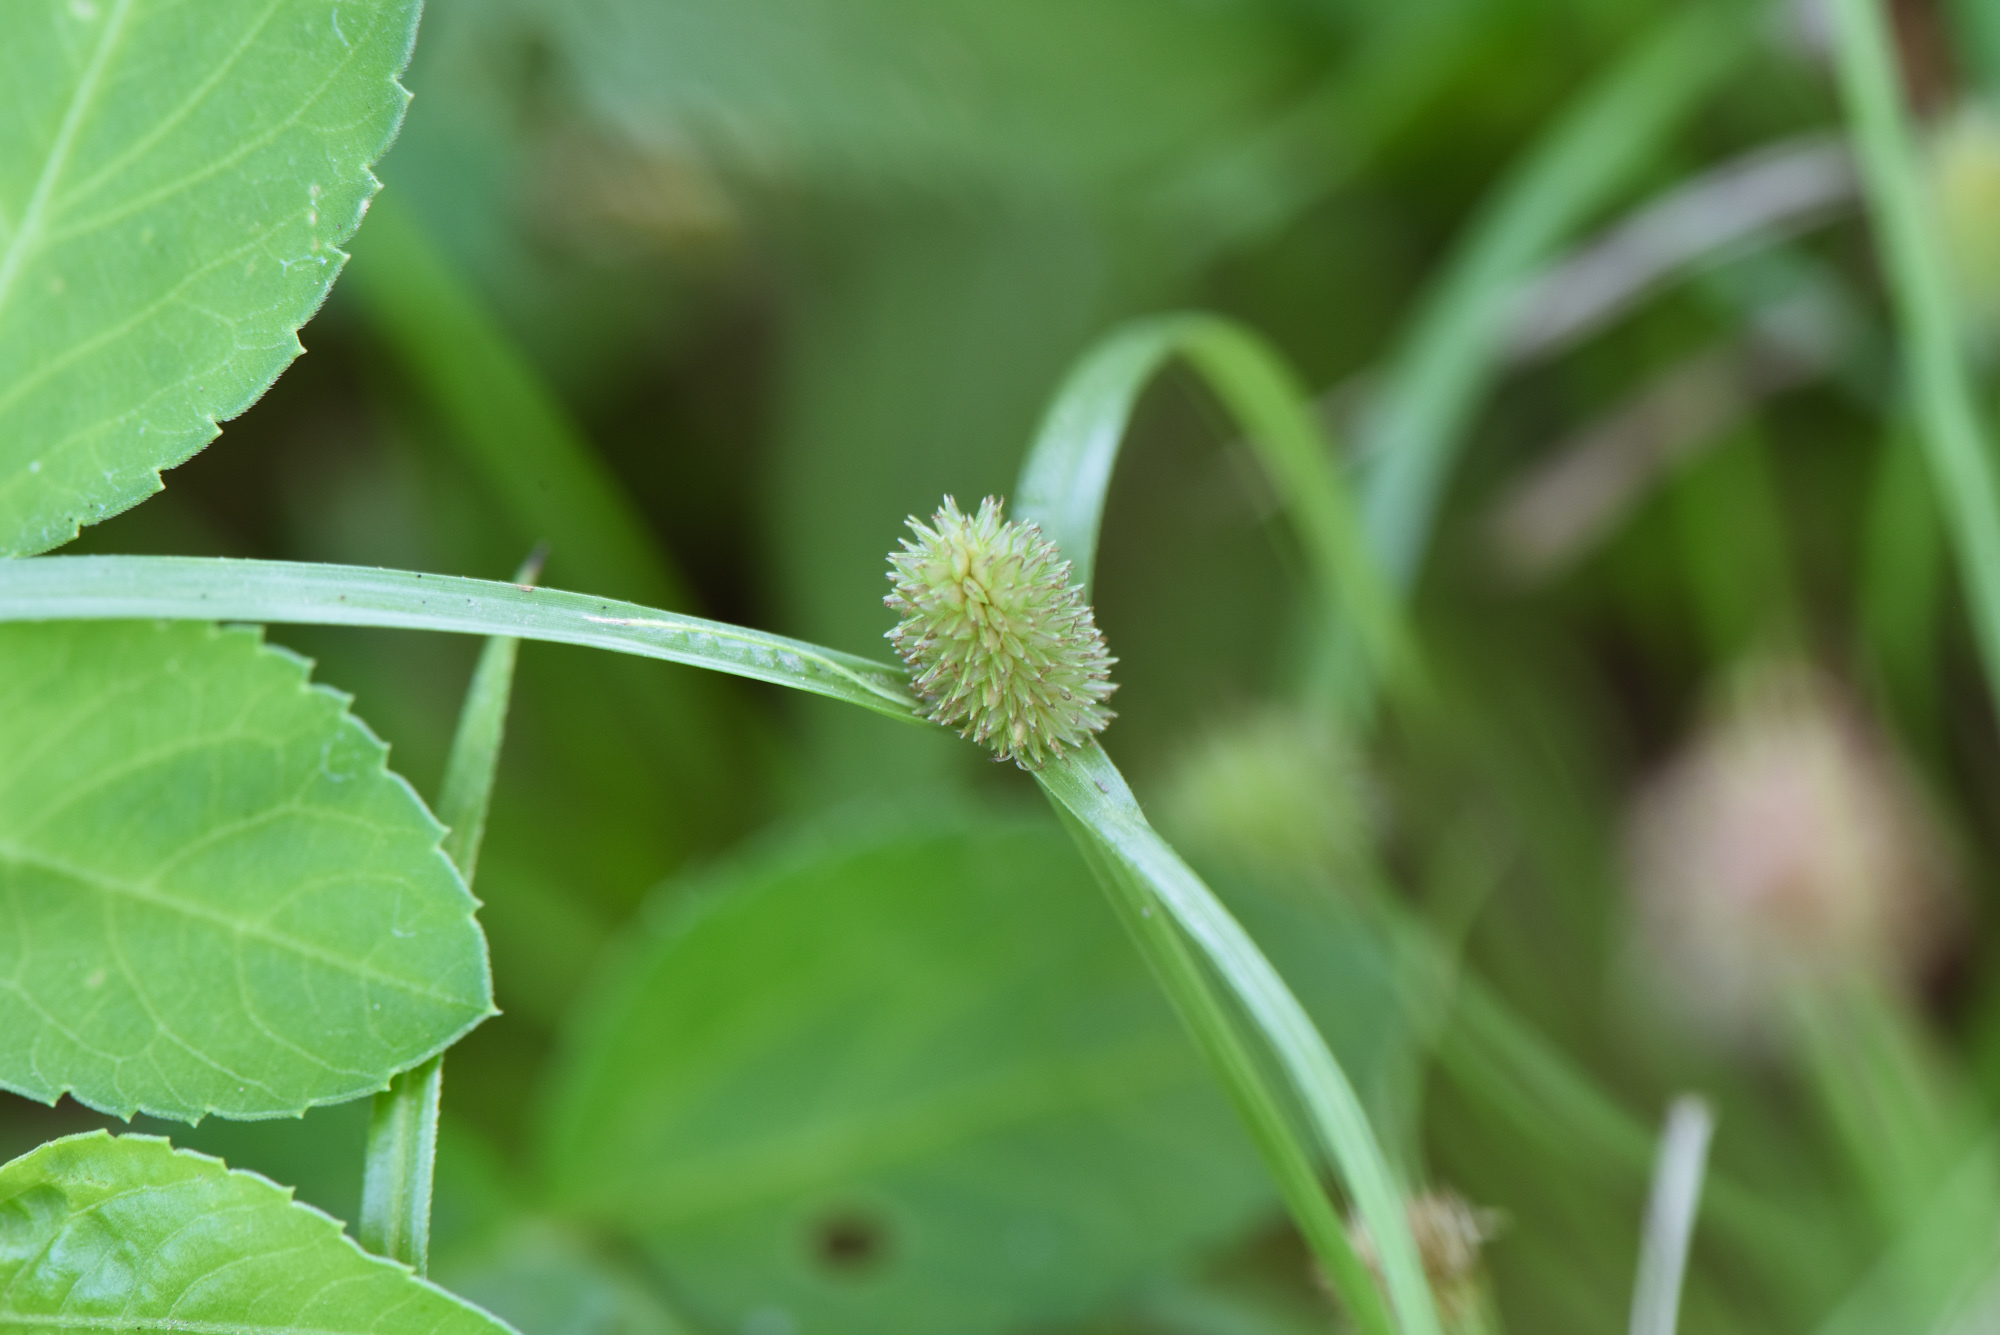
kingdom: Plantae
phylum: Tracheophyta
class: Liliopsida
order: Poales
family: Cyperaceae
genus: Cyperus
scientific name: Cyperus brevifolius
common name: Globe kyllinga
